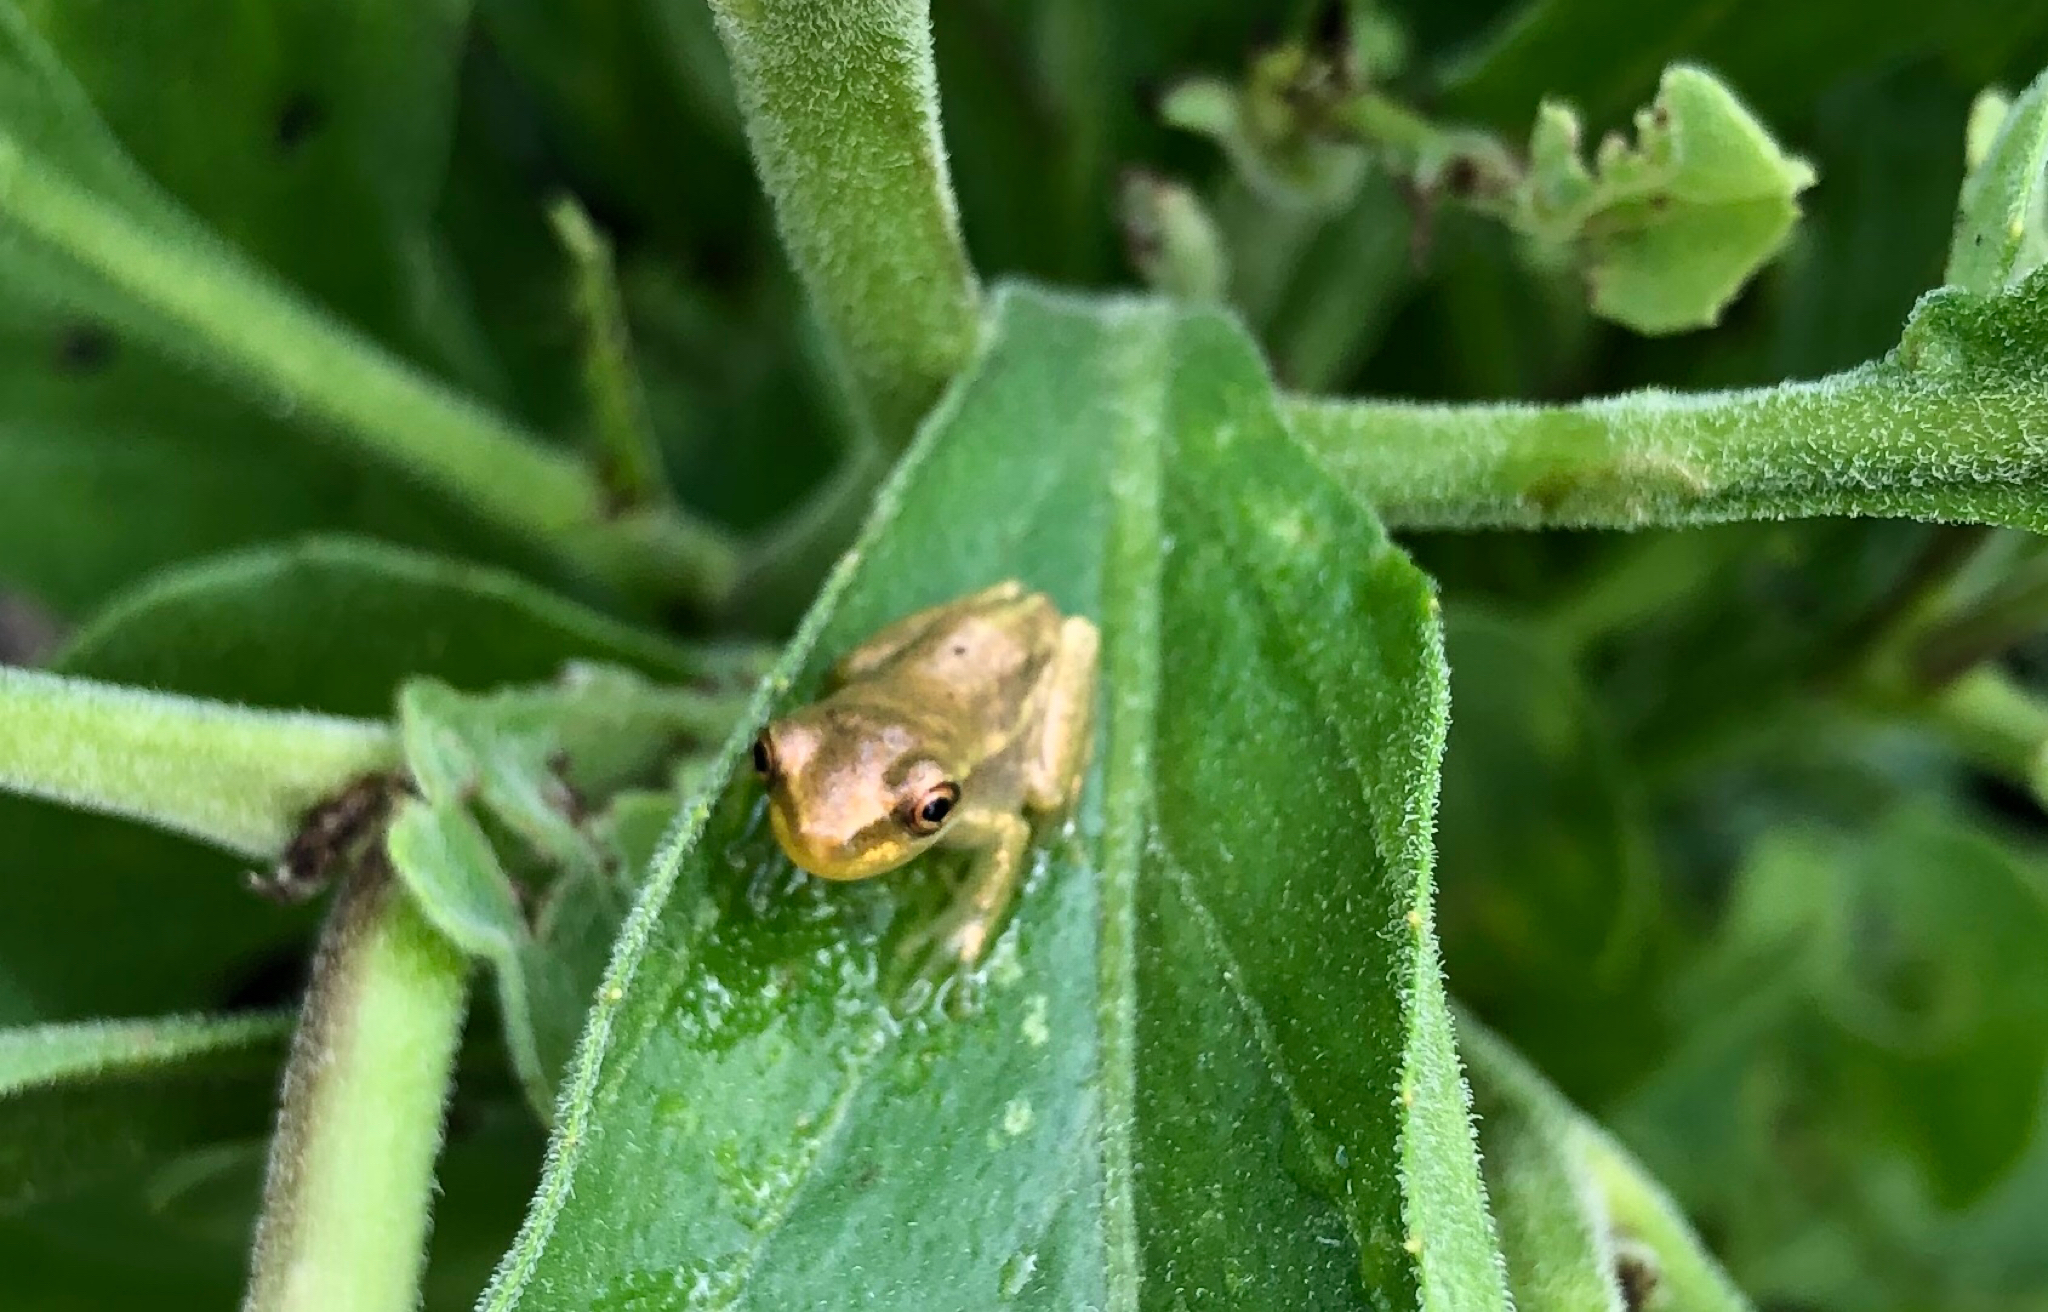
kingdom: Animalia
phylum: Chordata
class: Amphibia
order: Anura
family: Hylidae
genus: Osteopilus
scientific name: Osteopilus septentrionalis
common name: Cuban treefrog
